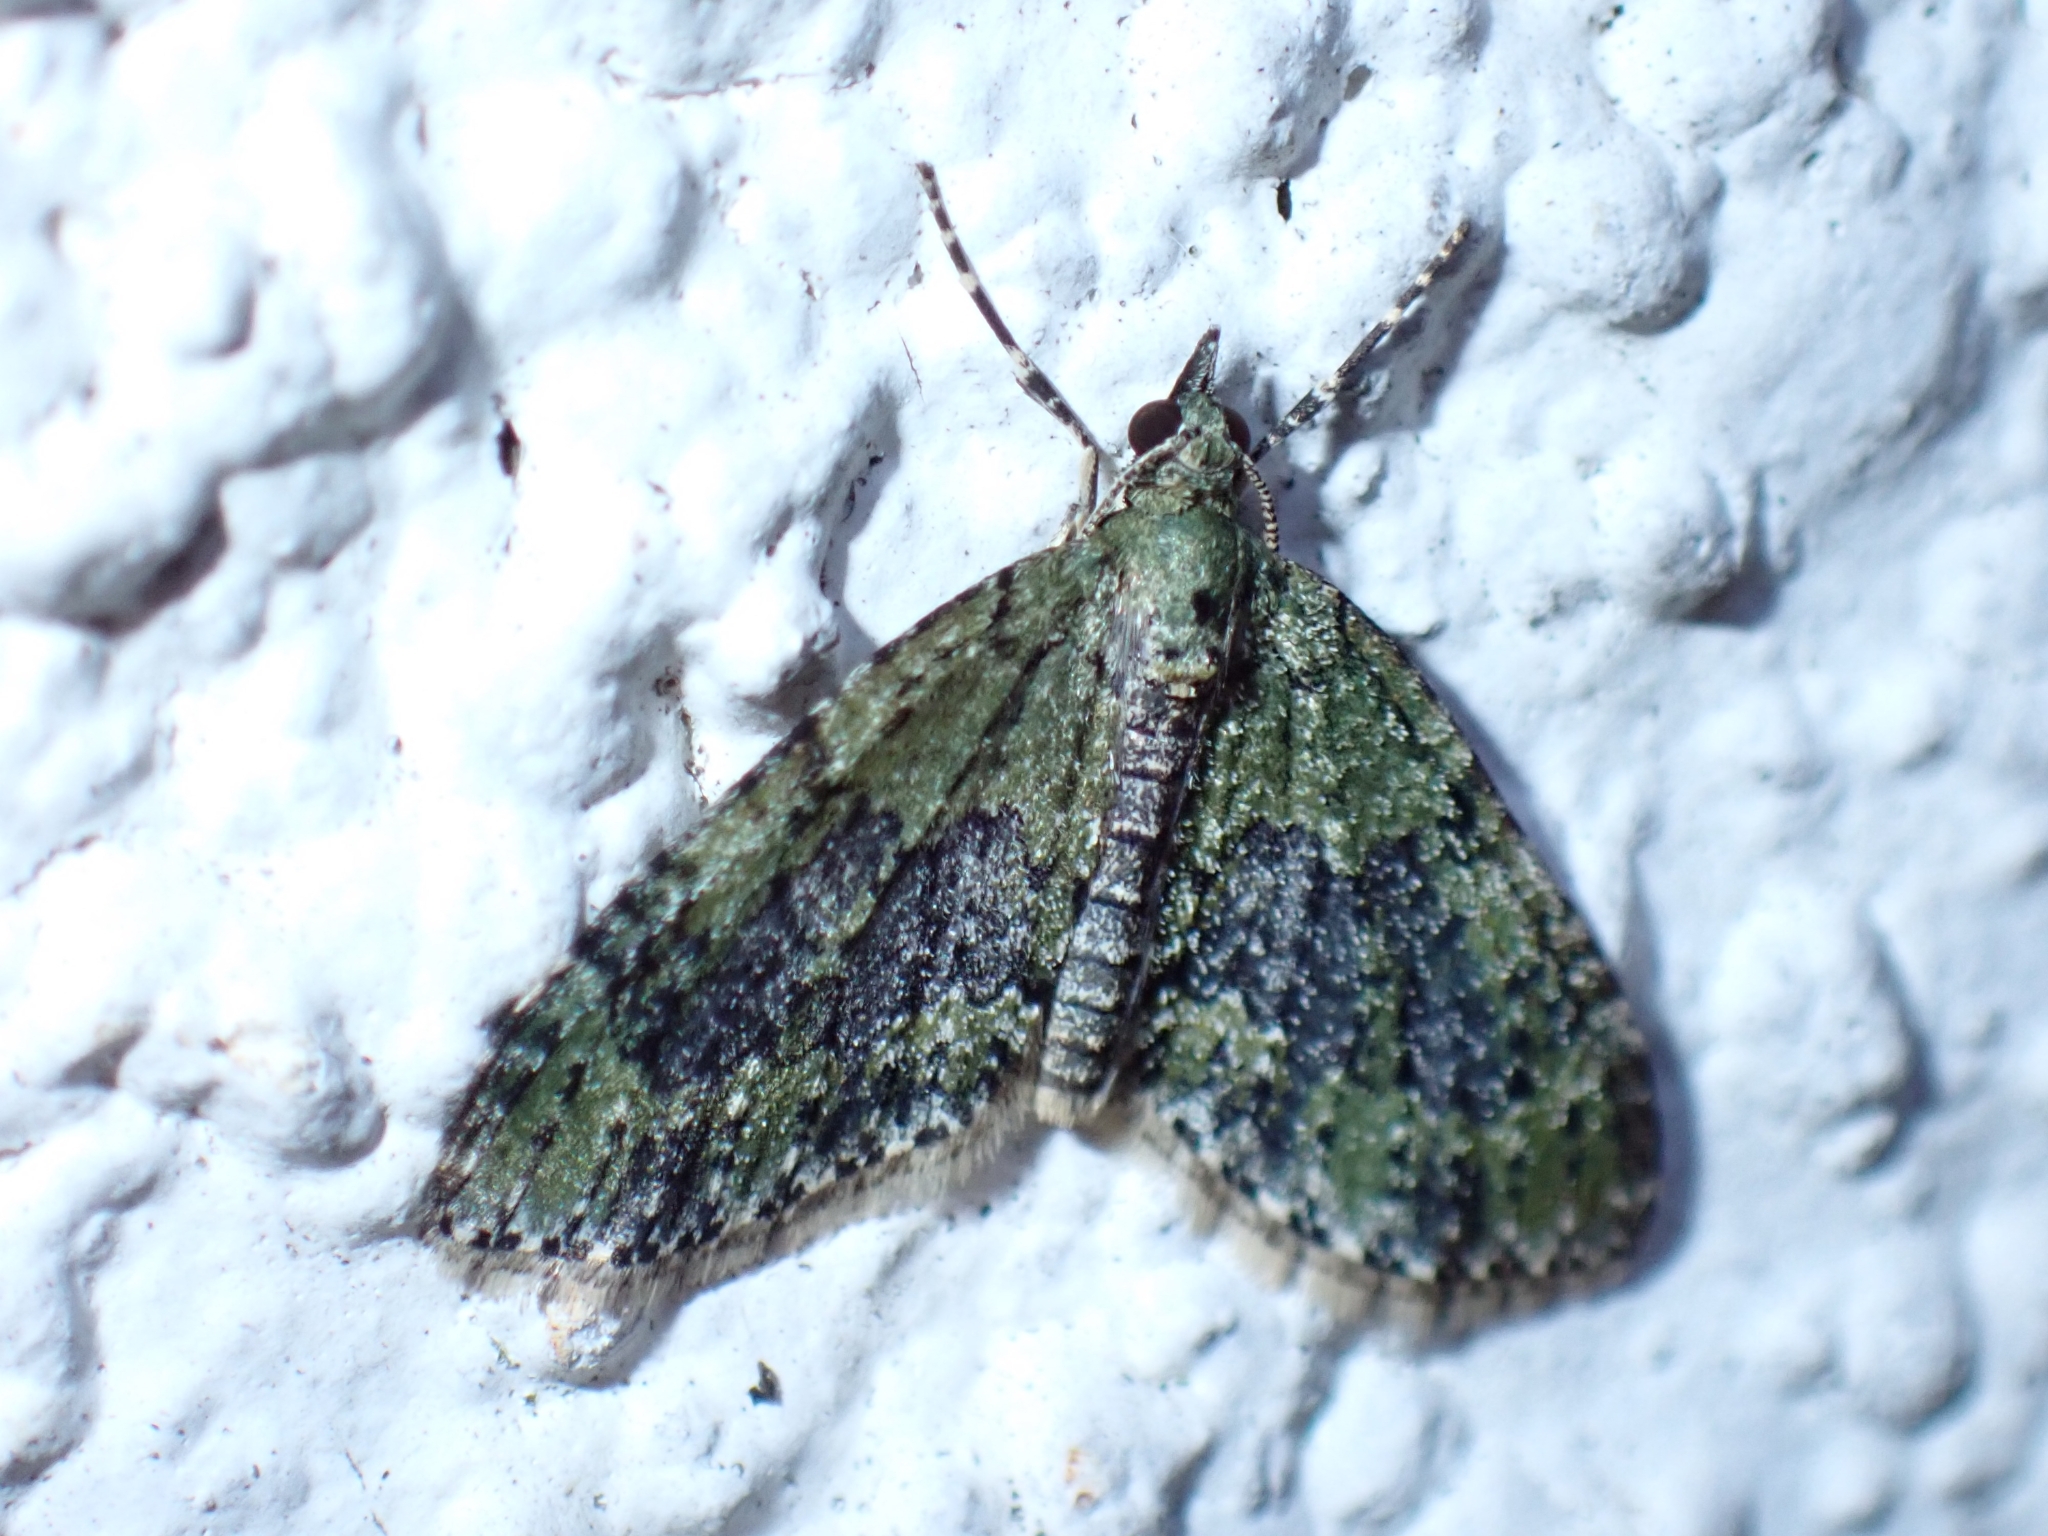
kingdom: Animalia
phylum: Arthropoda
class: Insecta
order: Lepidoptera
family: Geometridae
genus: Acasis
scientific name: Acasis viretata
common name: Yellow-barred brindle
